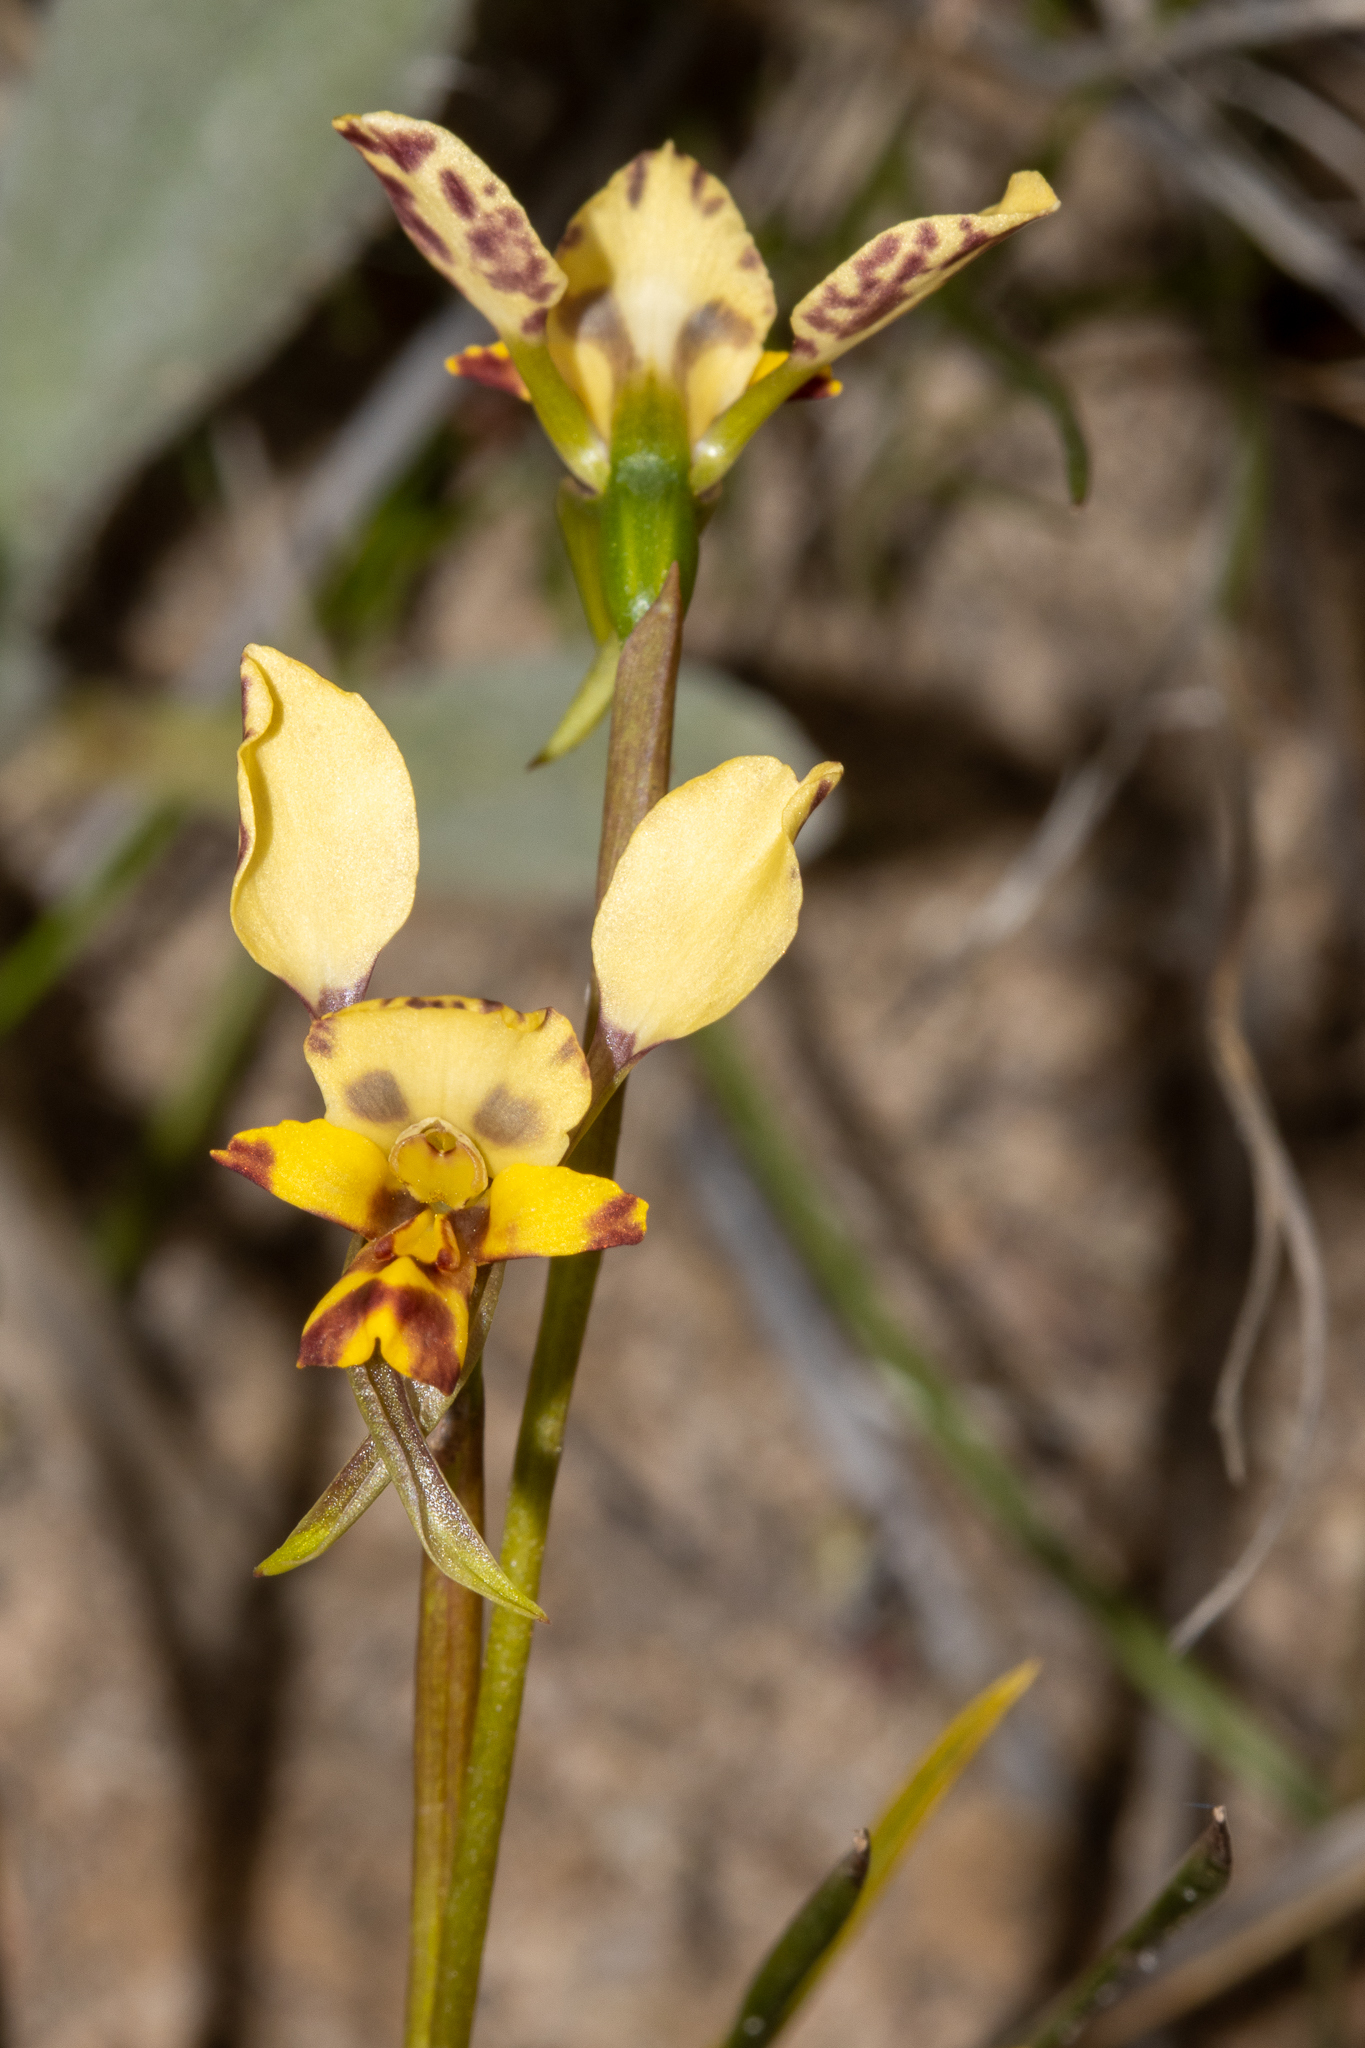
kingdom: Plantae
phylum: Tracheophyta
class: Liliopsida
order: Asparagales
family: Orchidaceae
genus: Diuris
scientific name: Diuris pardina
